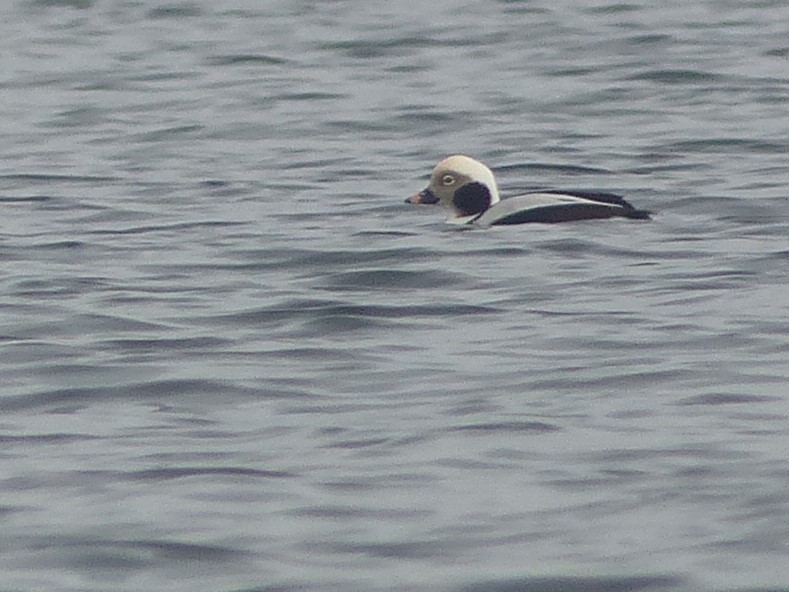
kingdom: Animalia
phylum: Chordata
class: Aves
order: Anseriformes
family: Anatidae
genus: Clangula
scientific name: Clangula hyemalis
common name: Long-tailed duck
